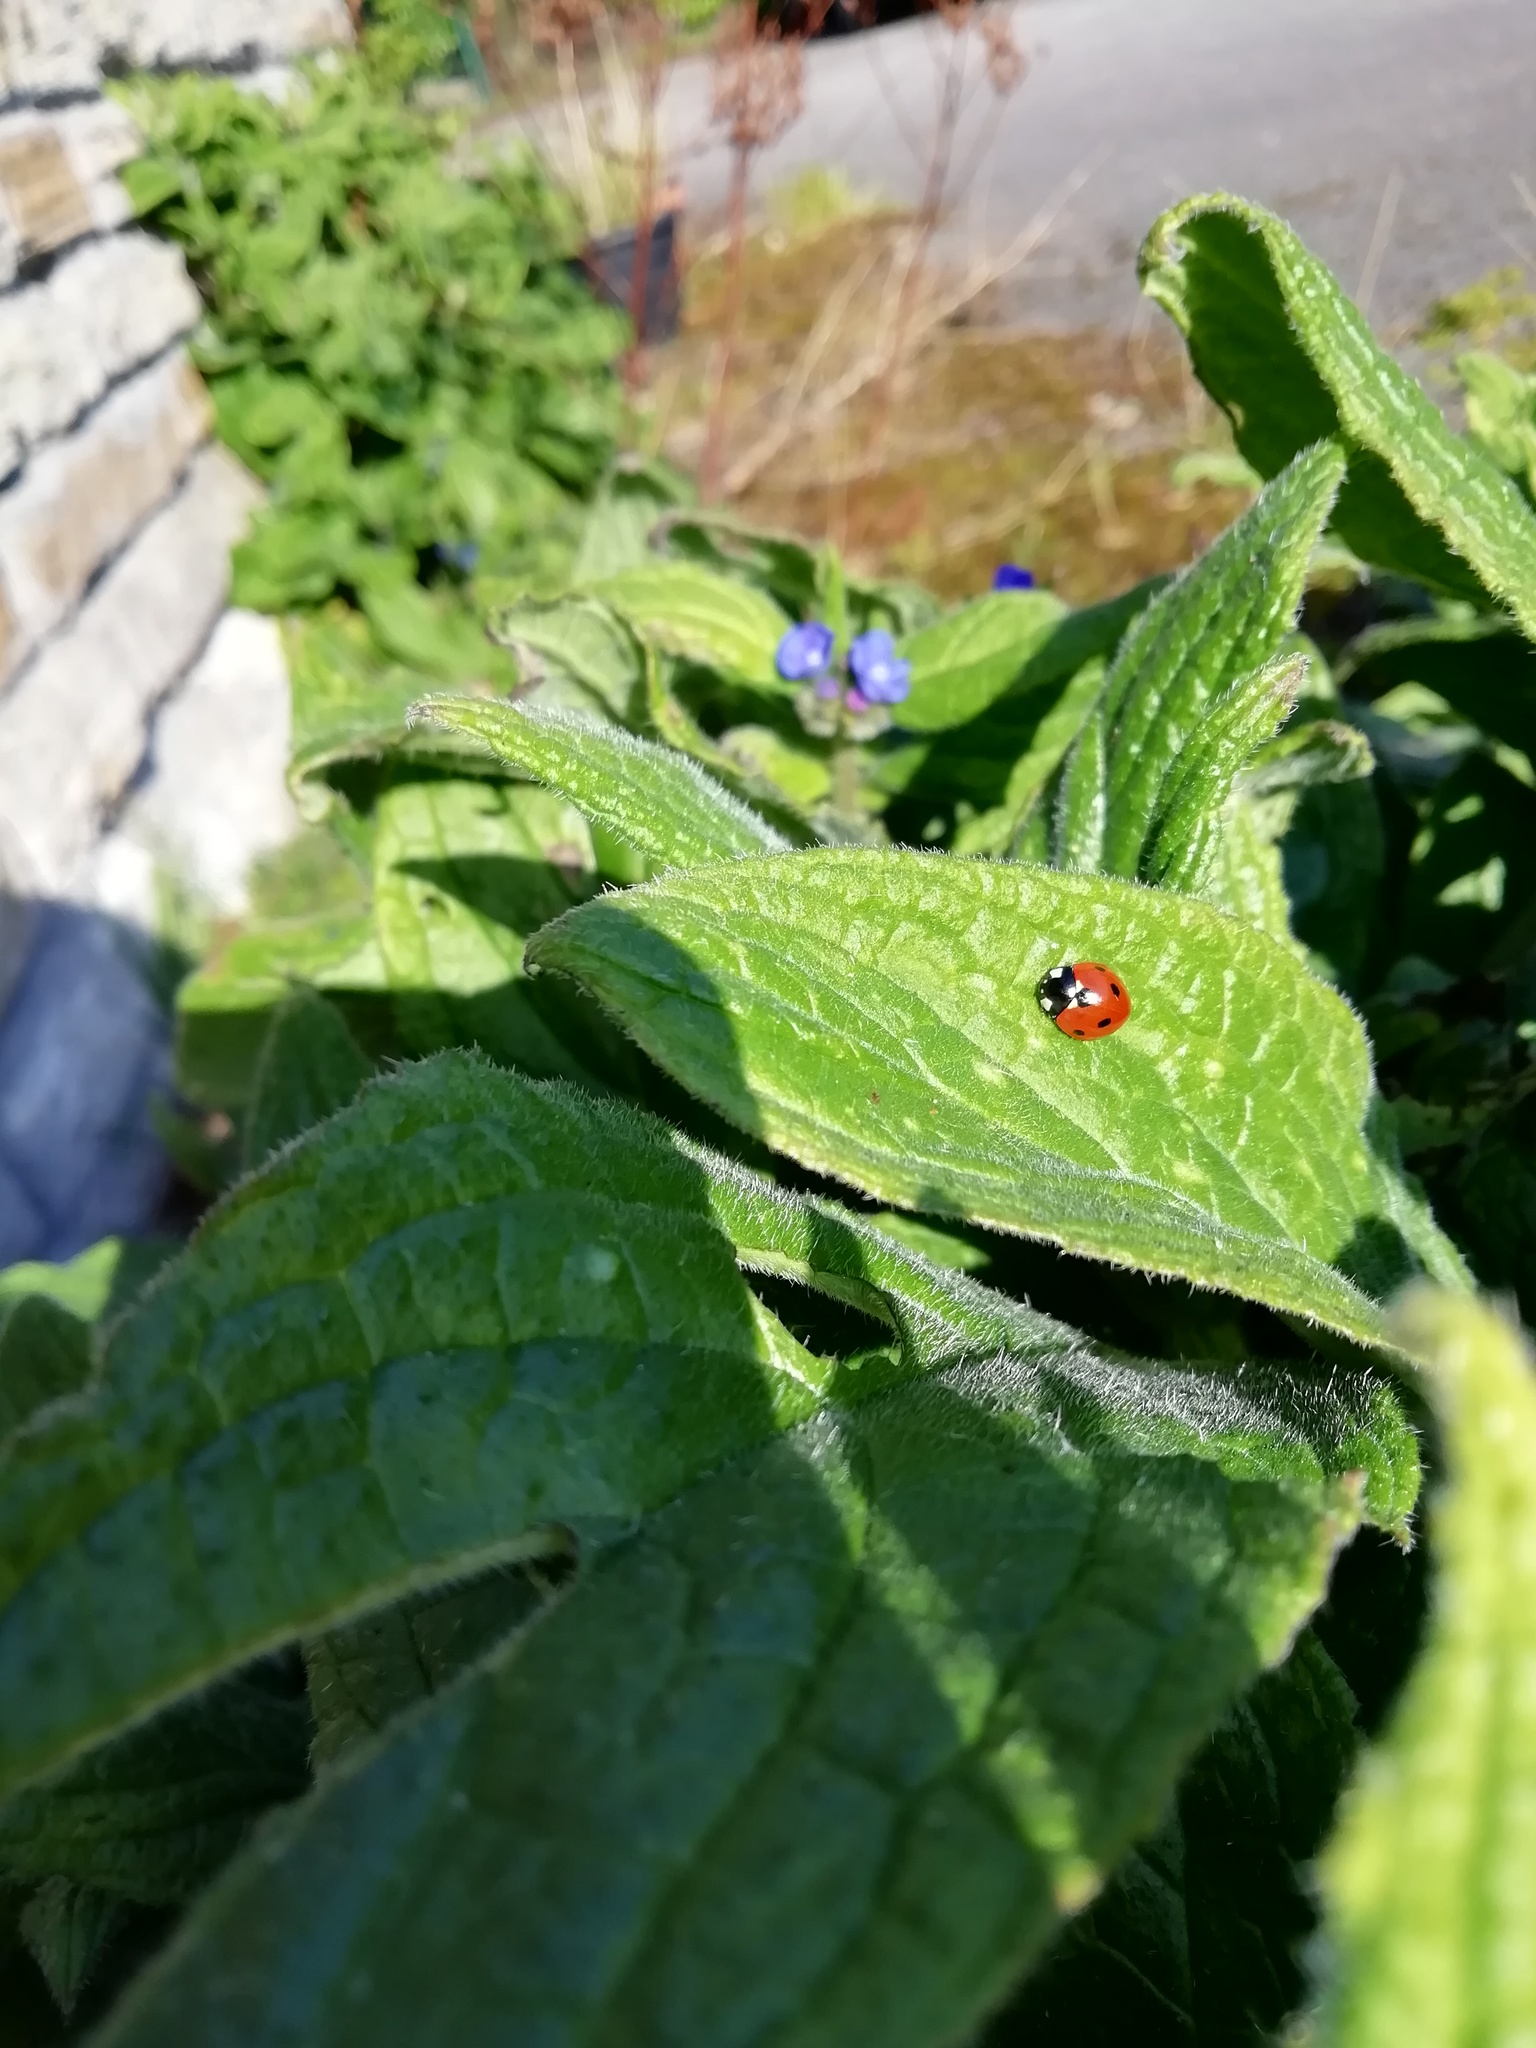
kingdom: Animalia
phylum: Arthropoda
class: Insecta
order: Coleoptera
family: Coccinellidae
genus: Coccinella
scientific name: Coccinella septempunctata
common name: Sevenspotted lady beetle
